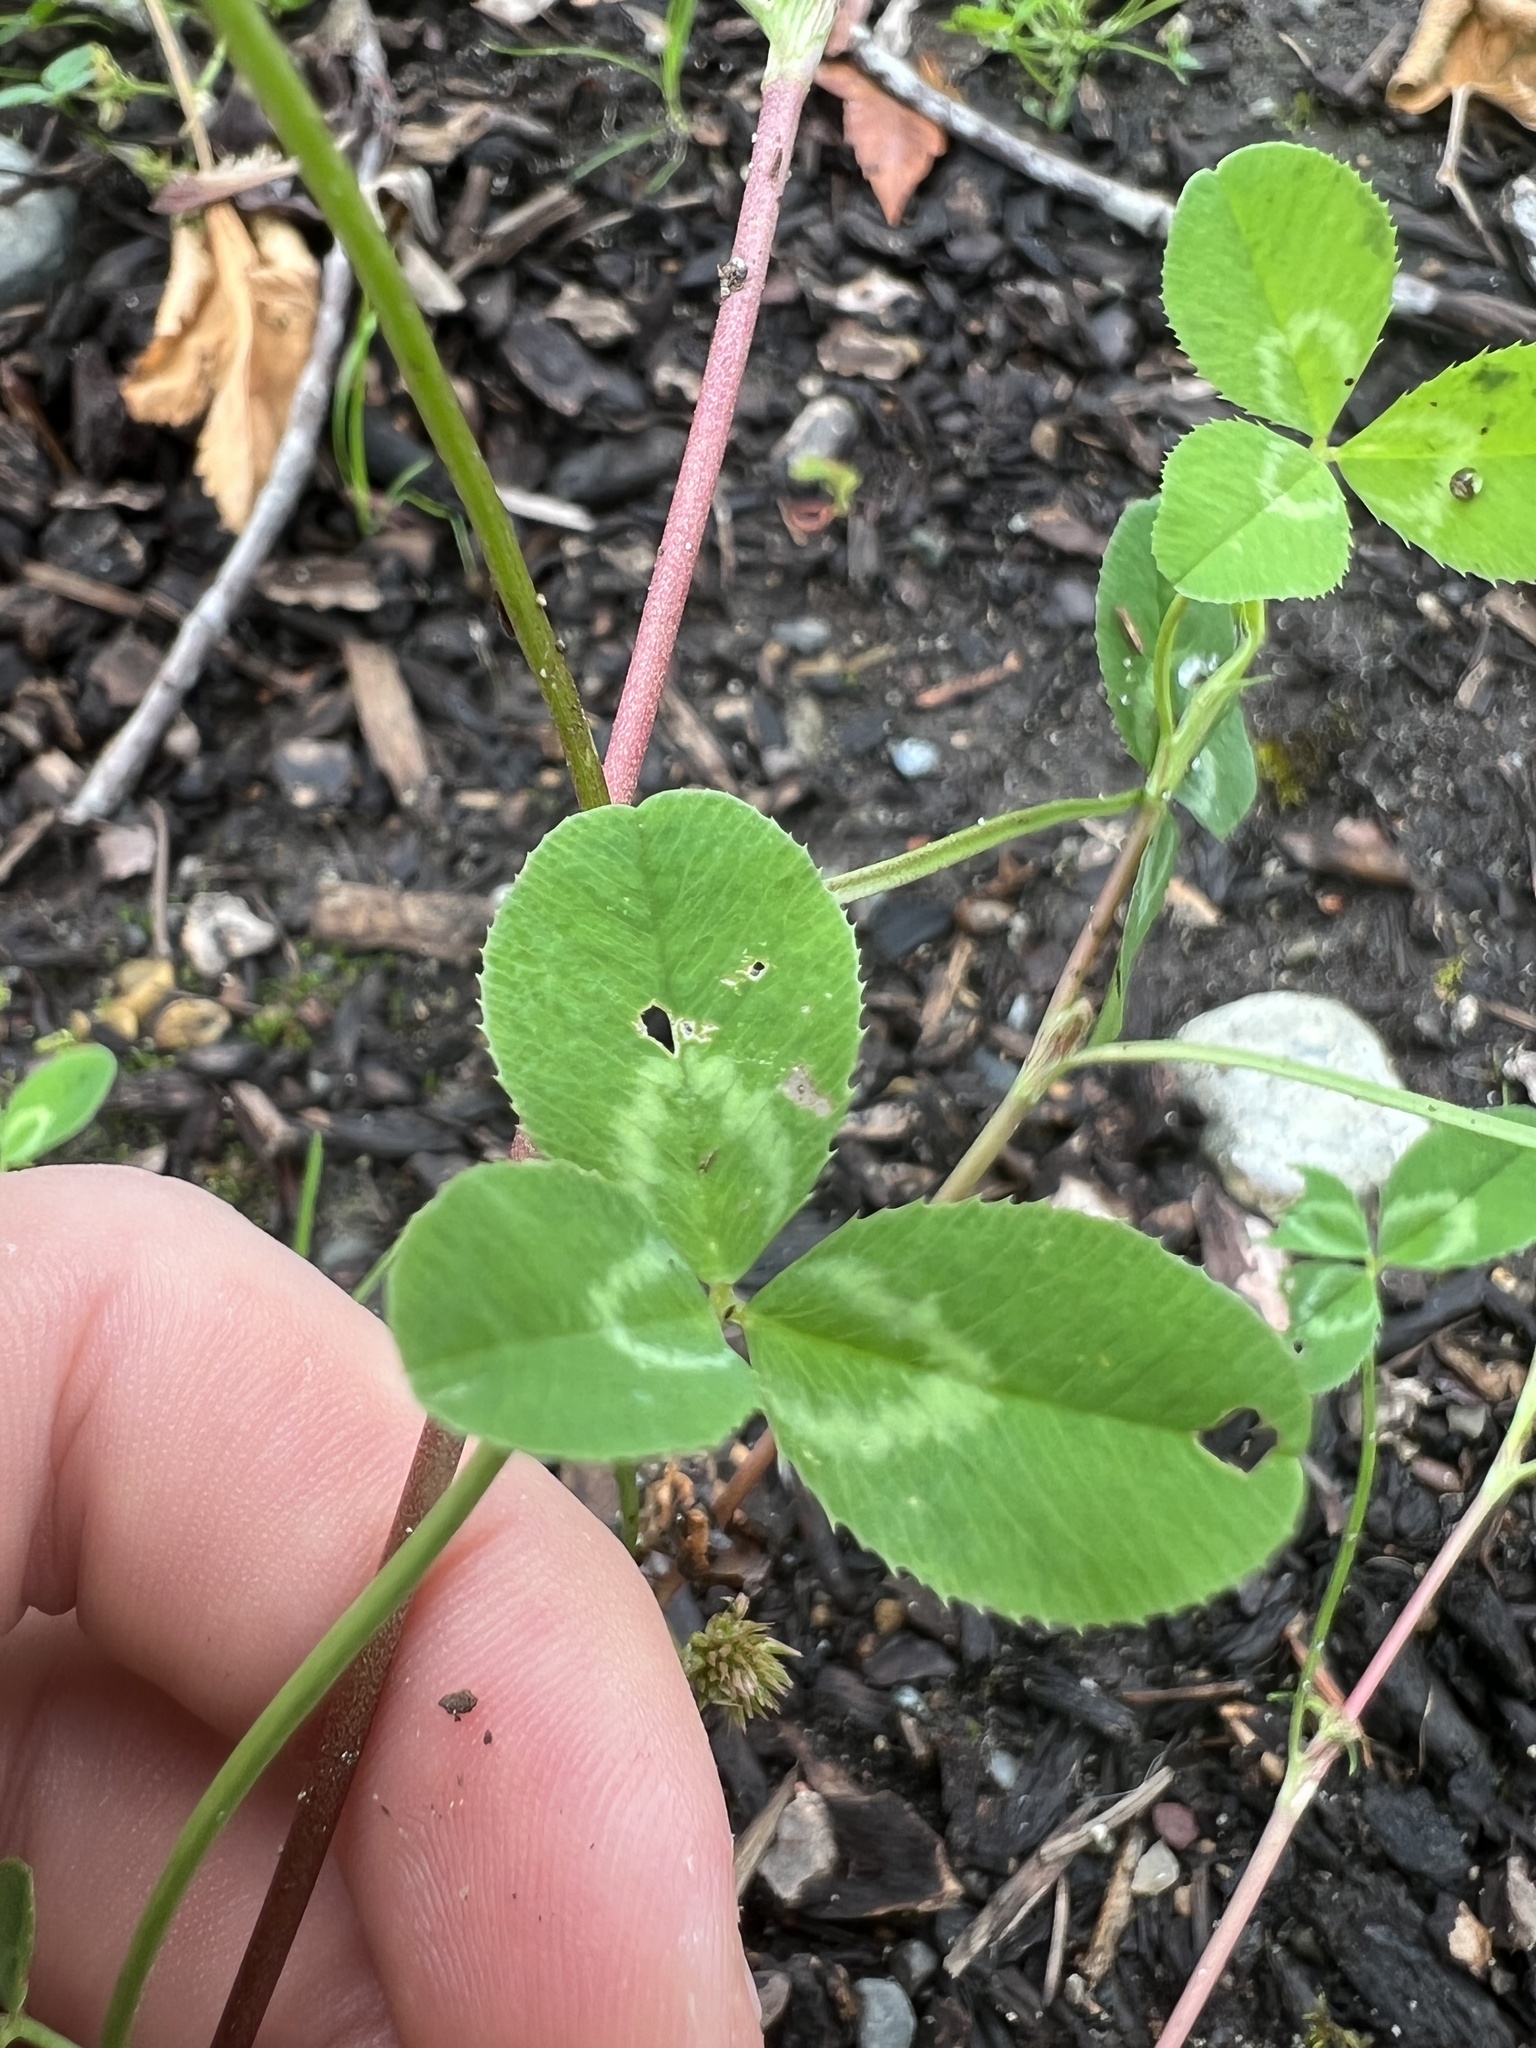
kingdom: Plantae
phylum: Tracheophyta
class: Magnoliopsida
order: Fabales
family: Fabaceae
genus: Trifolium
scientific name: Trifolium repens
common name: White clover
